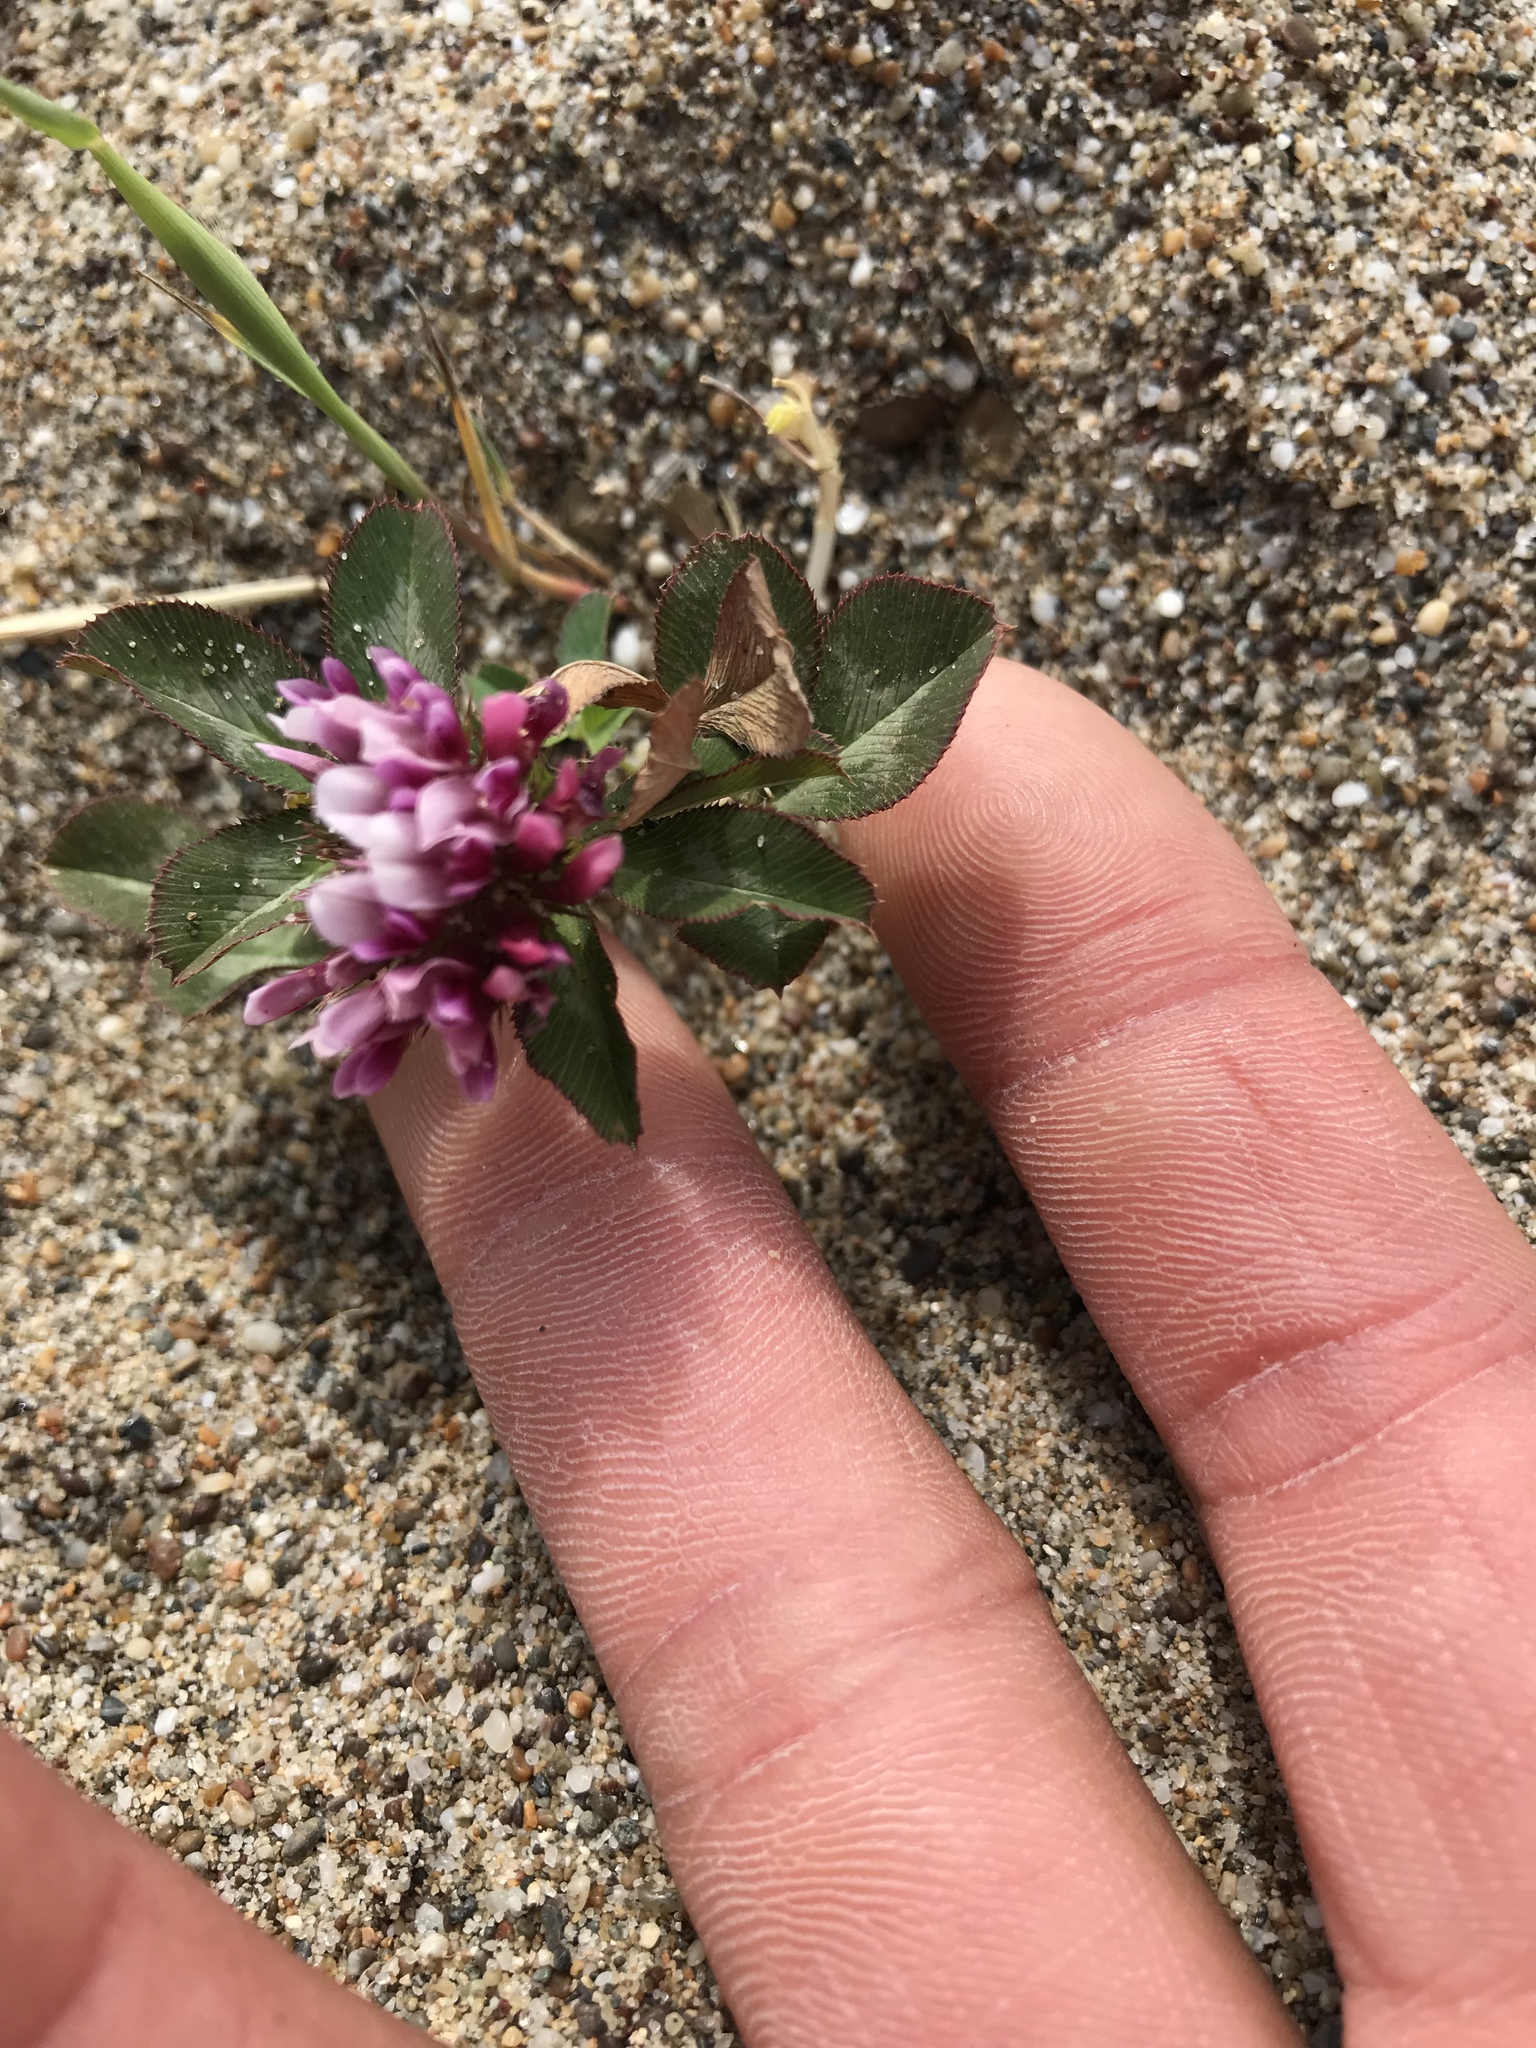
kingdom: Plantae
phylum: Tracheophyta
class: Magnoliopsida
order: Fabales
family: Fabaceae
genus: Trifolium
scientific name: Trifolium wormskioldii
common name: Springbank clover
